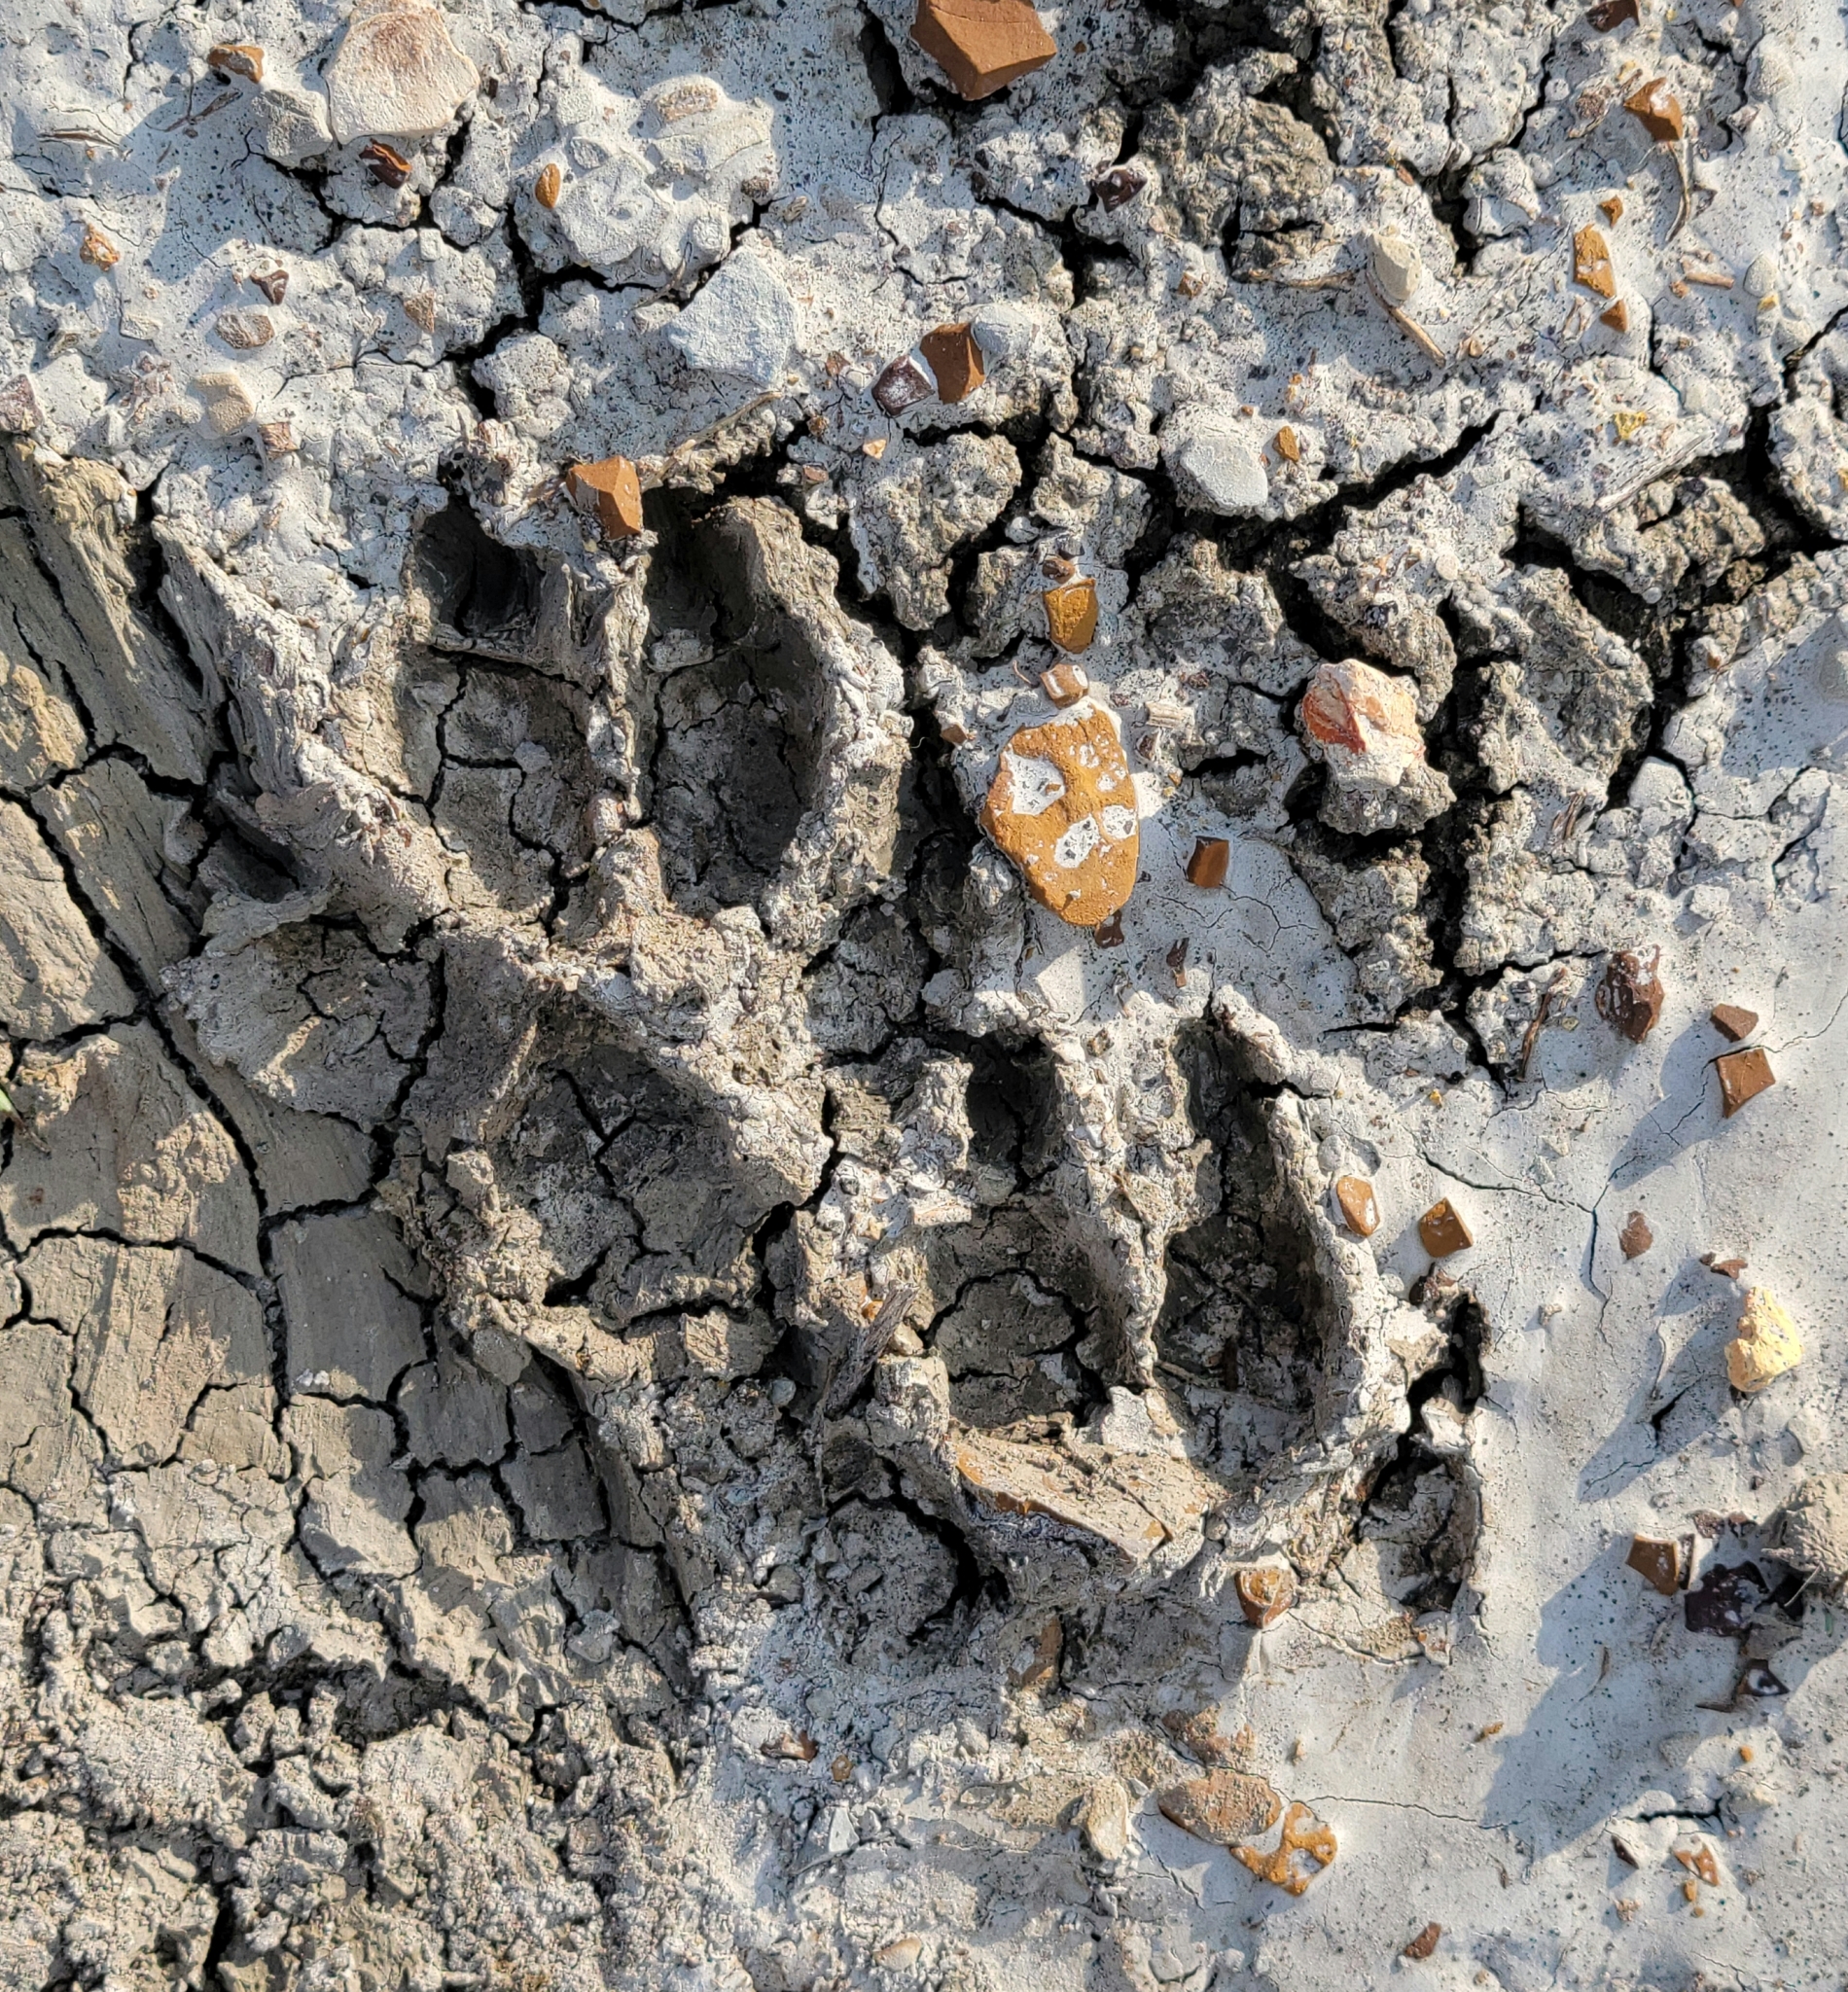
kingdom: Animalia
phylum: Chordata
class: Mammalia
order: Artiodactyla
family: Antilocapridae
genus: Antilocapra
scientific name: Antilocapra americana
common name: Pronghorn
